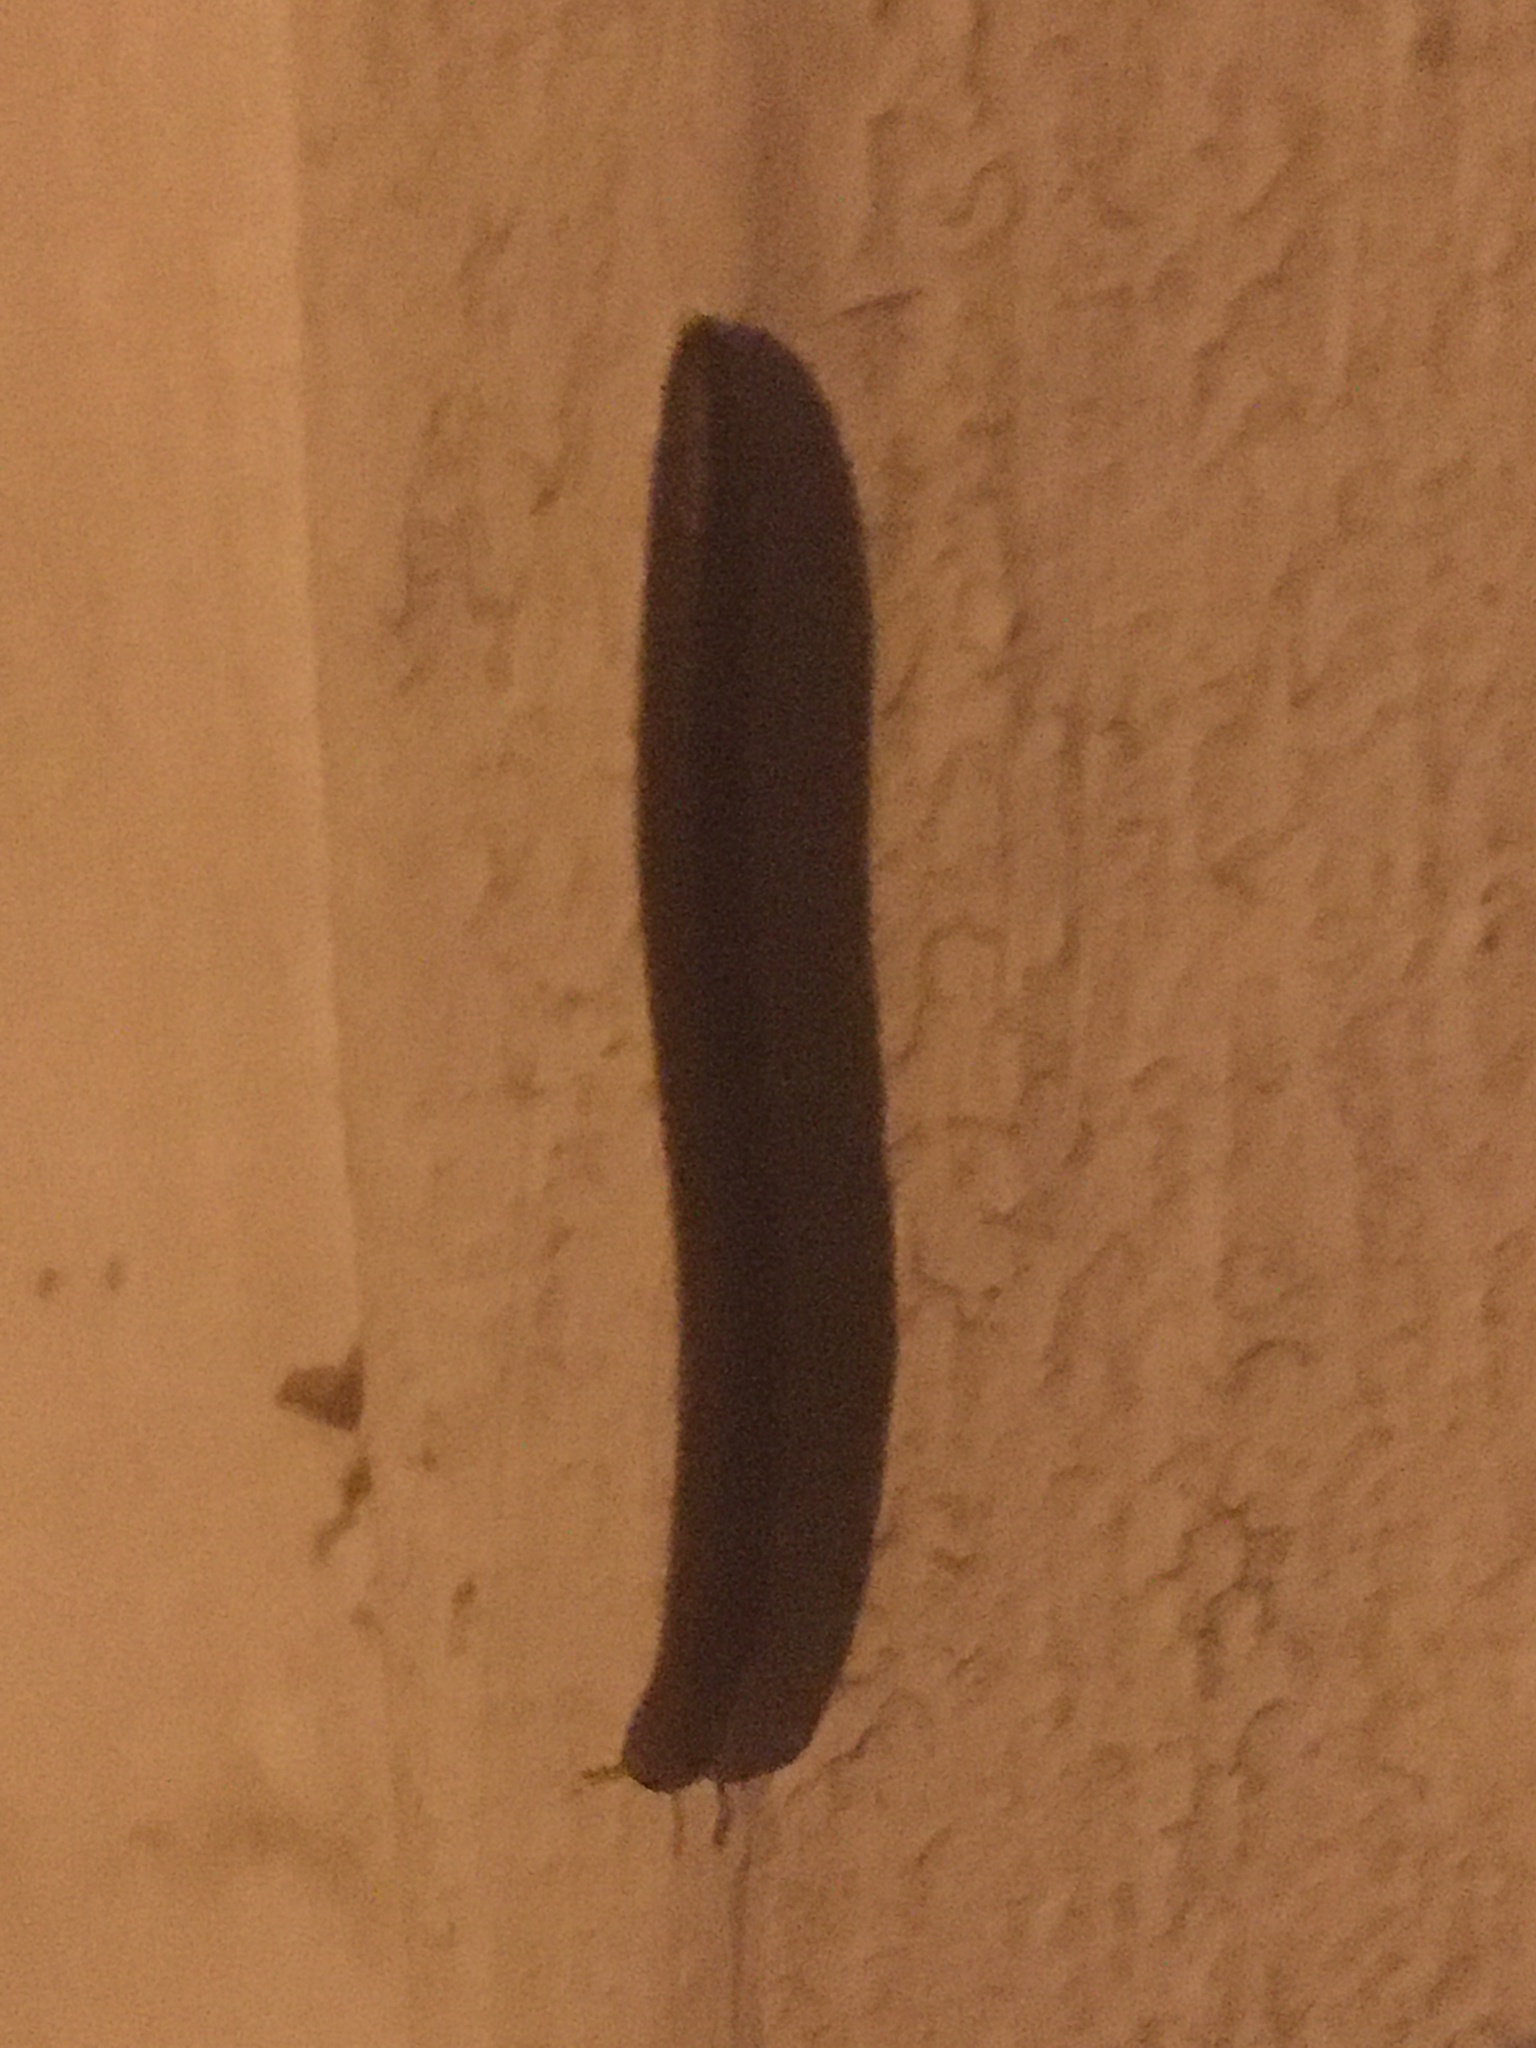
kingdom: Animalia
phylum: Arthropoda
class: Diplopoda
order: Julida
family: Julidae
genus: Pachyiulus
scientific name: Pachyiulus flavipes
